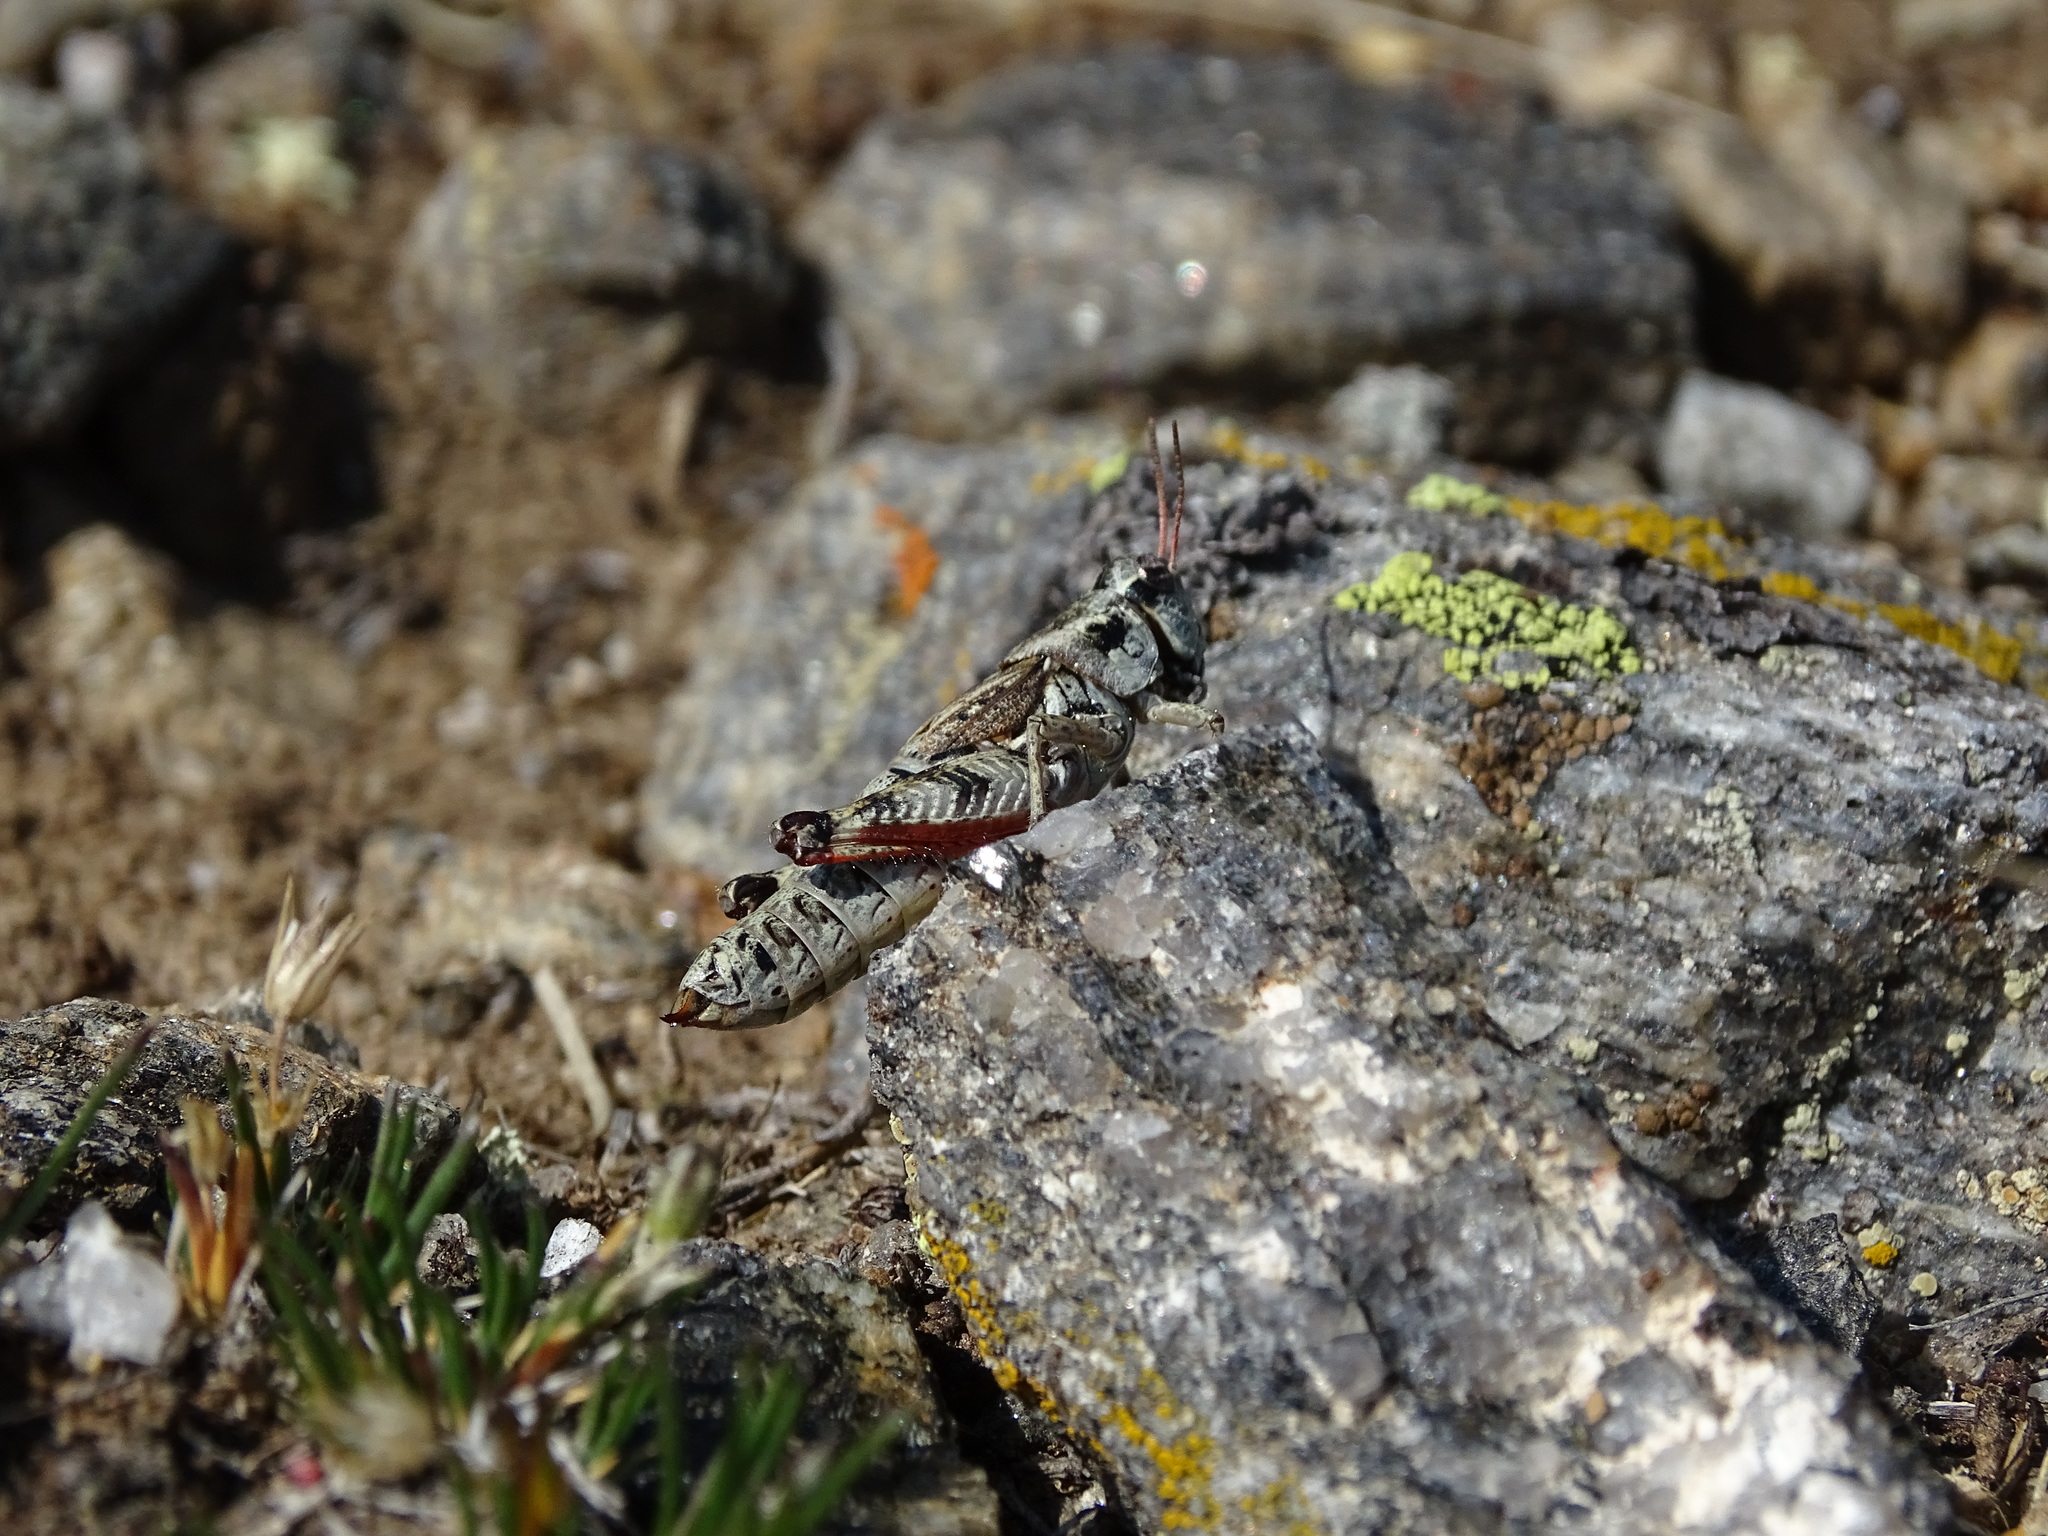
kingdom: Animalia
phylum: Arthropoda
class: Insecta
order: Orthoptera
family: Acrididae
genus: Melanoplus
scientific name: Melanoplus bohemani
